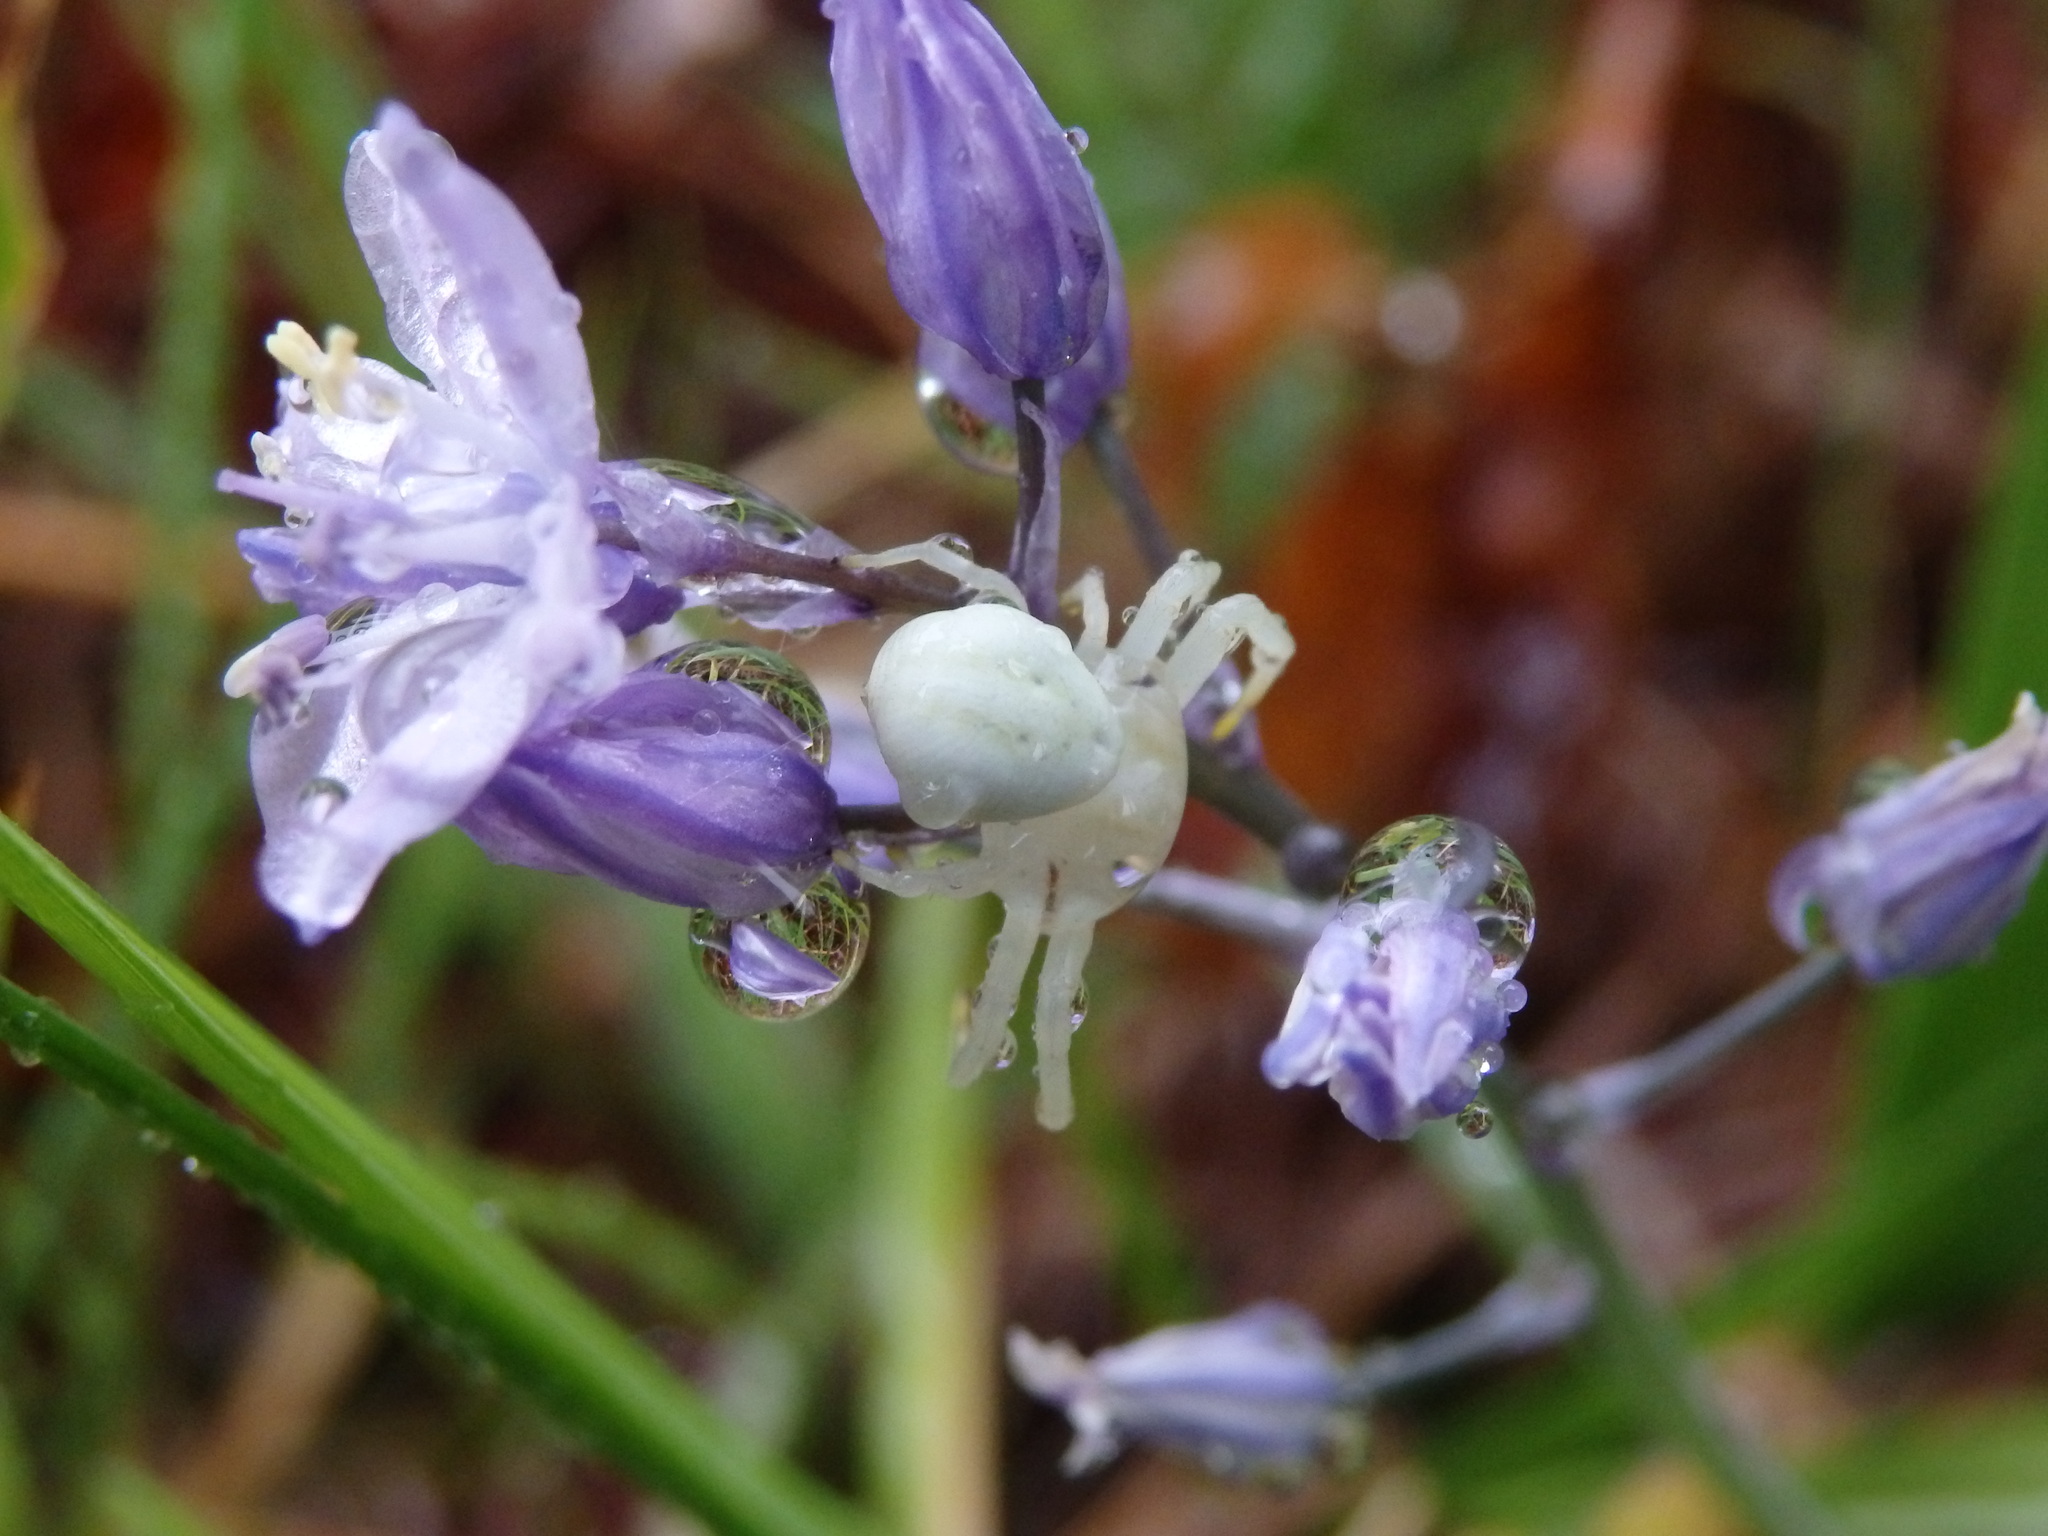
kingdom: Animalia
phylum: Arthropoda
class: Arachnida
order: Araneae
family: Thomisidae
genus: Misumena
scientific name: Misumena vatia
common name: Goldenrod crab spider
